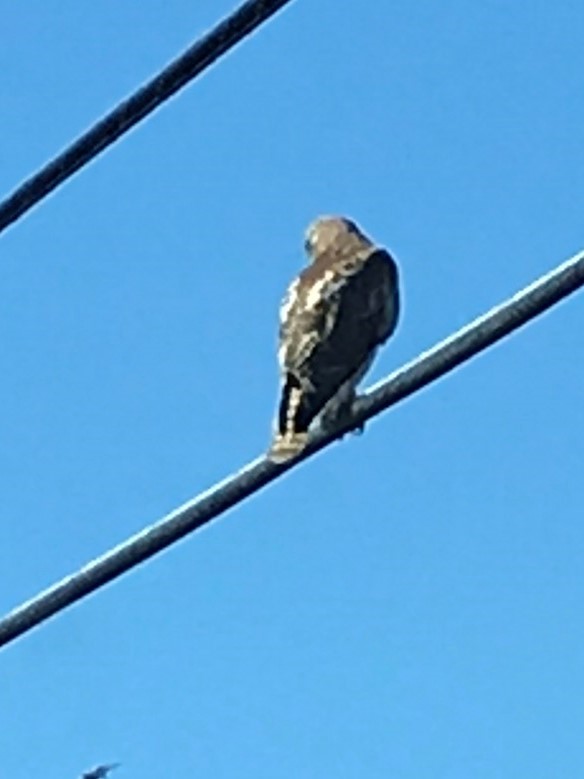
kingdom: Animalia
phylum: Chordata
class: Aves
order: Accipitriformes
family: Accipitridae
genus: Buteo
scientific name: Buteo jamaicensis
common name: Red-tailed hawk
